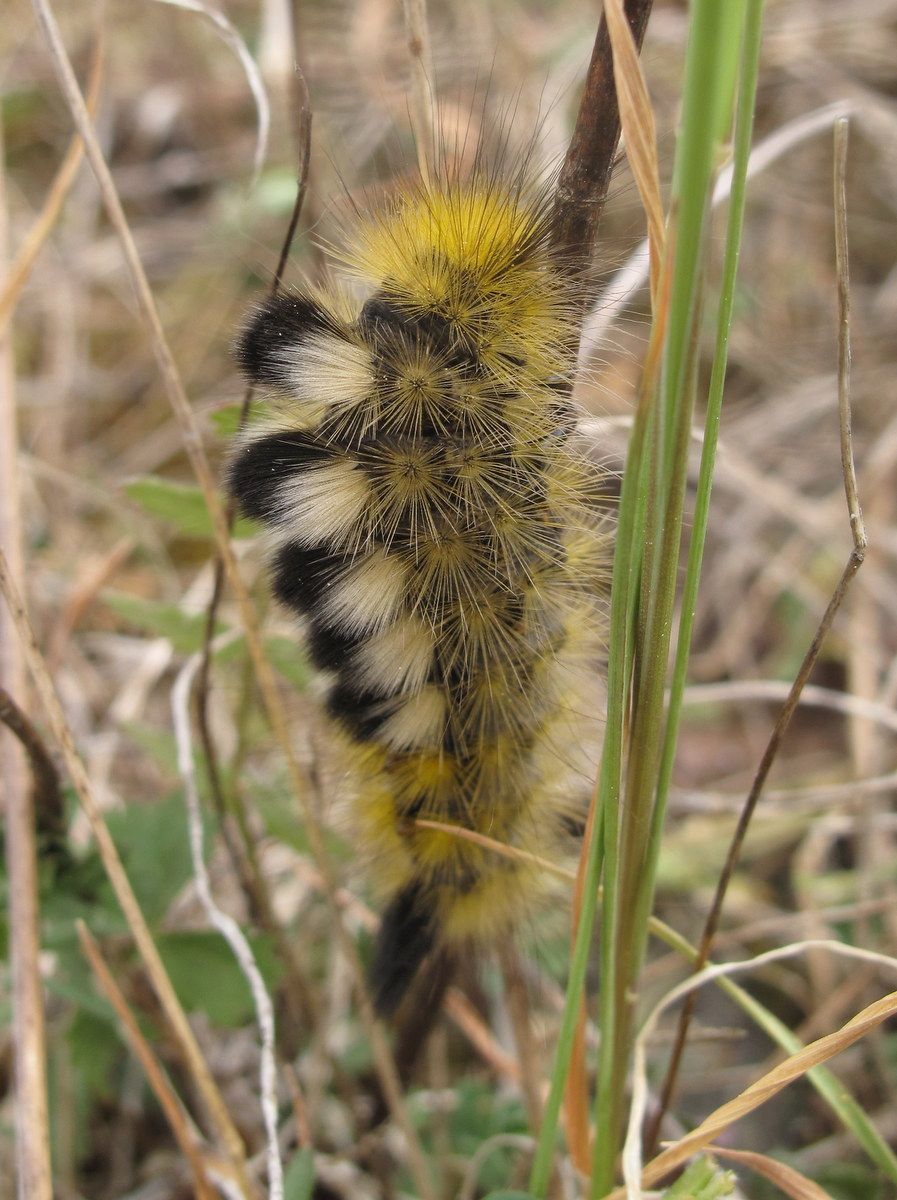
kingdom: Animalia
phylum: Arthropoda
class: Insecta
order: Lepidoptera
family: Erebidae
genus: Calliteara
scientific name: Calliteara Dicallomera fascelina
